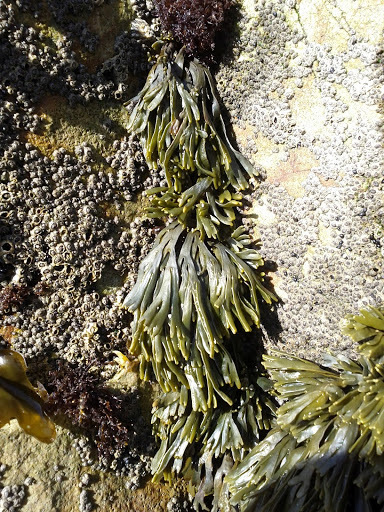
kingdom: Chromista
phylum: Ochrophyta
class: Phaeophyceae
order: Fucales
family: Fucaceae
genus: Fucus
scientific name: Fucus distichus
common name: Rockweed
